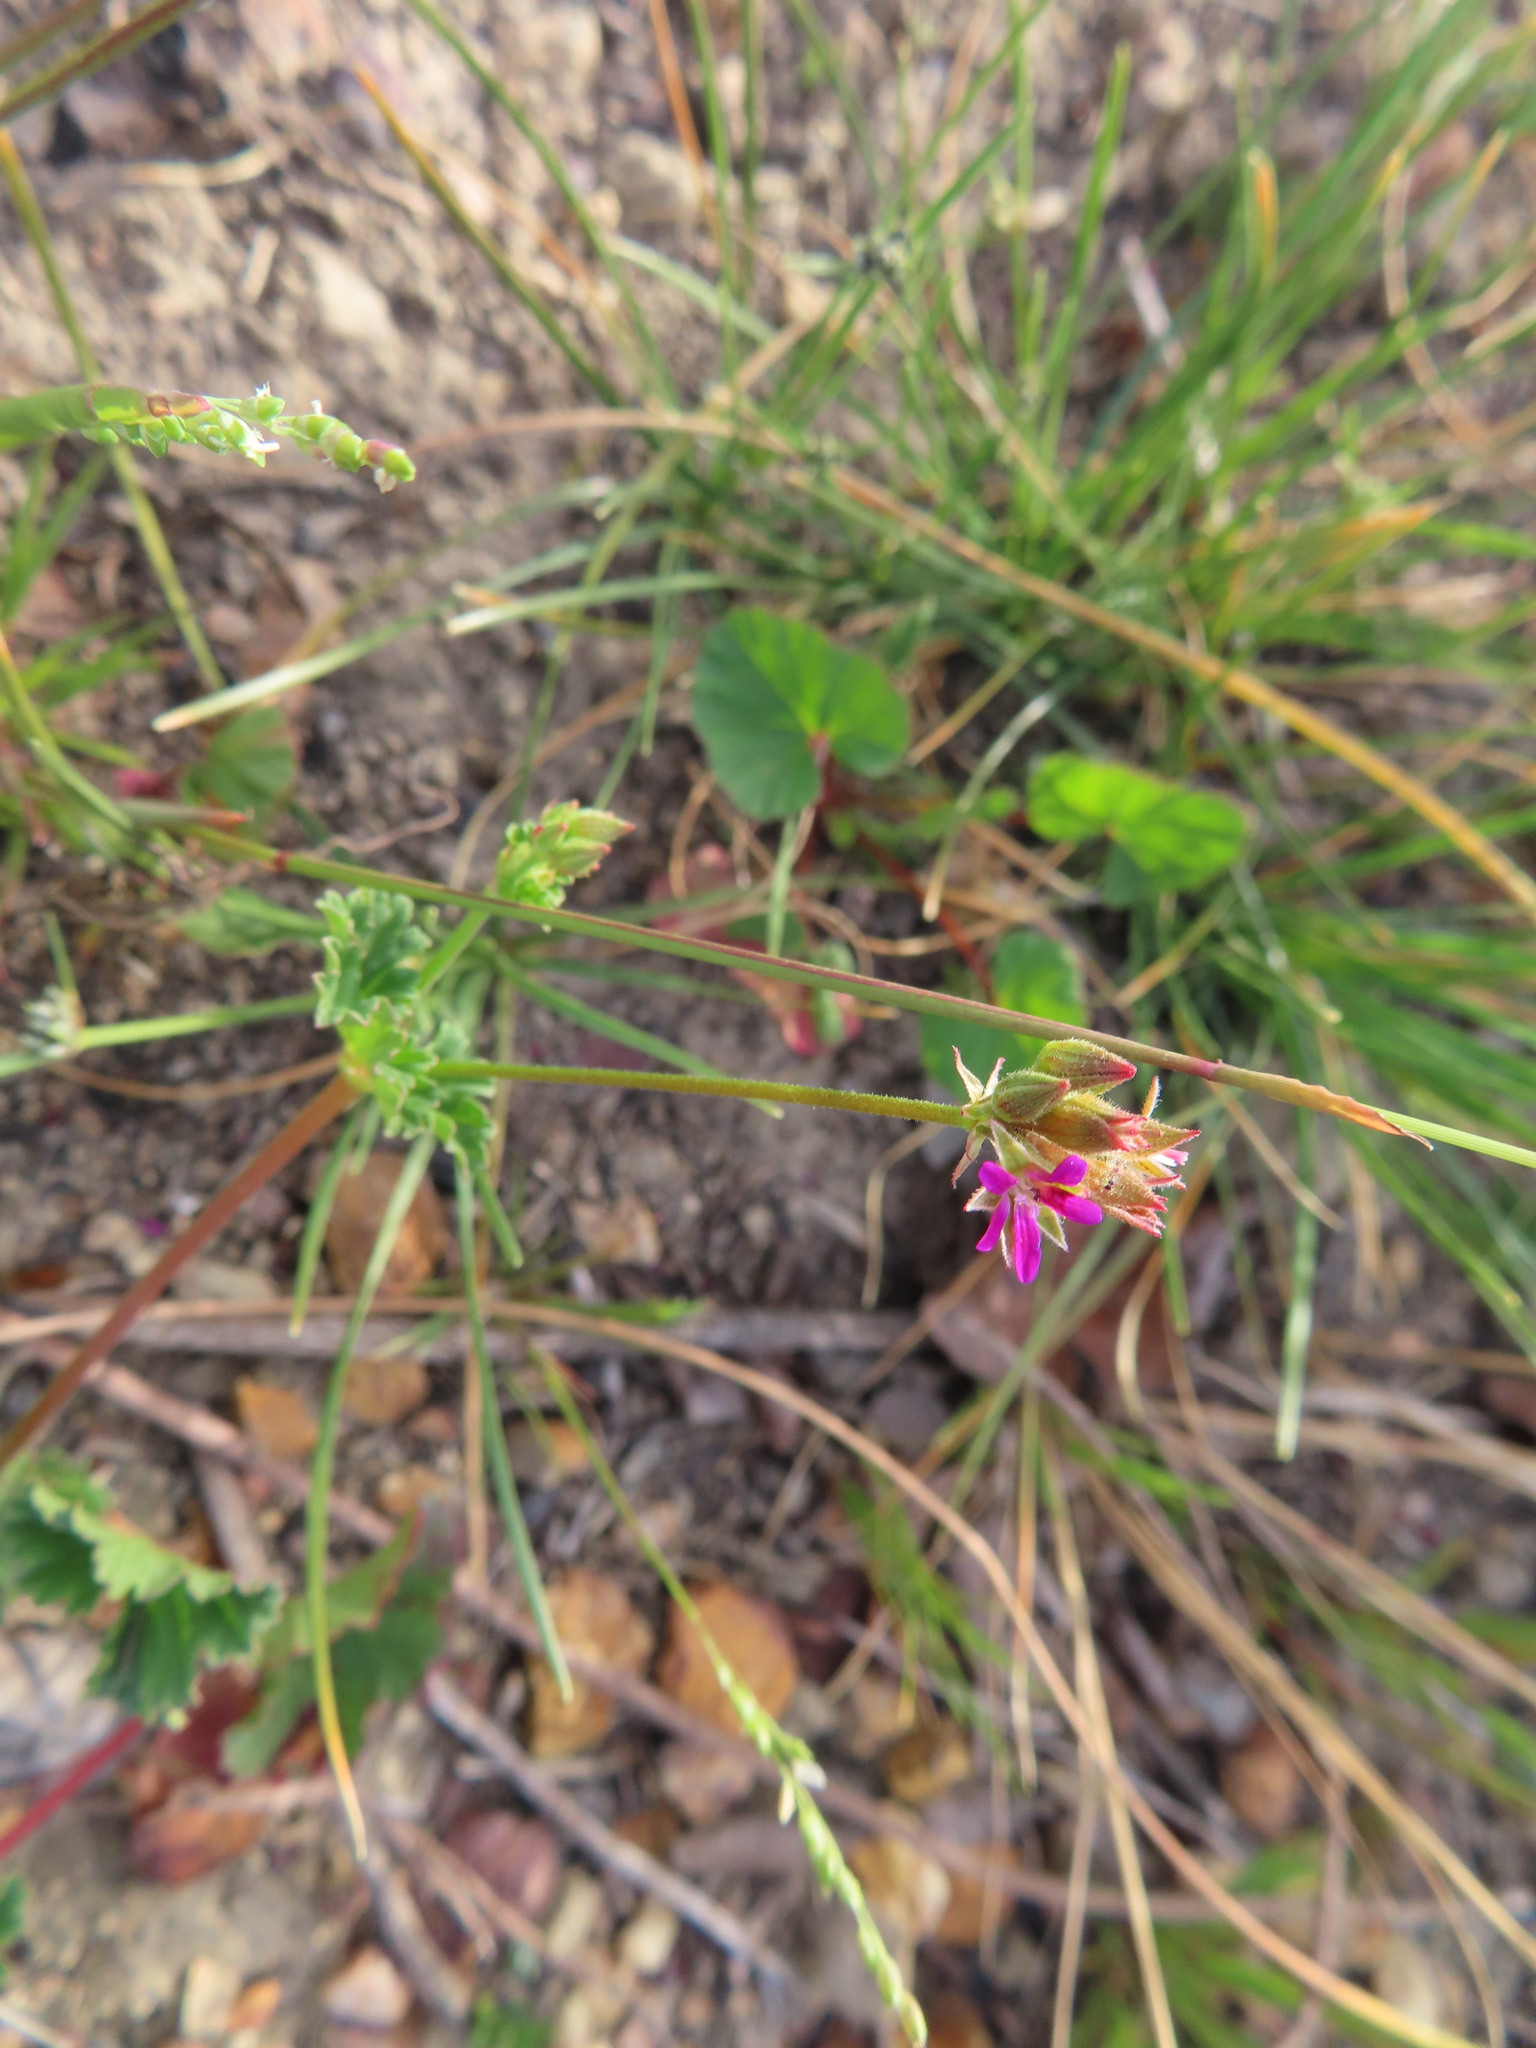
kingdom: Plantae
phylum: Tracheophyta
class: Magnoliopsida
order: Geraniales
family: Geraniaceae
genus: Pelargonium
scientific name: Pelargonium grossularioides
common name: Gooseberry geranium
